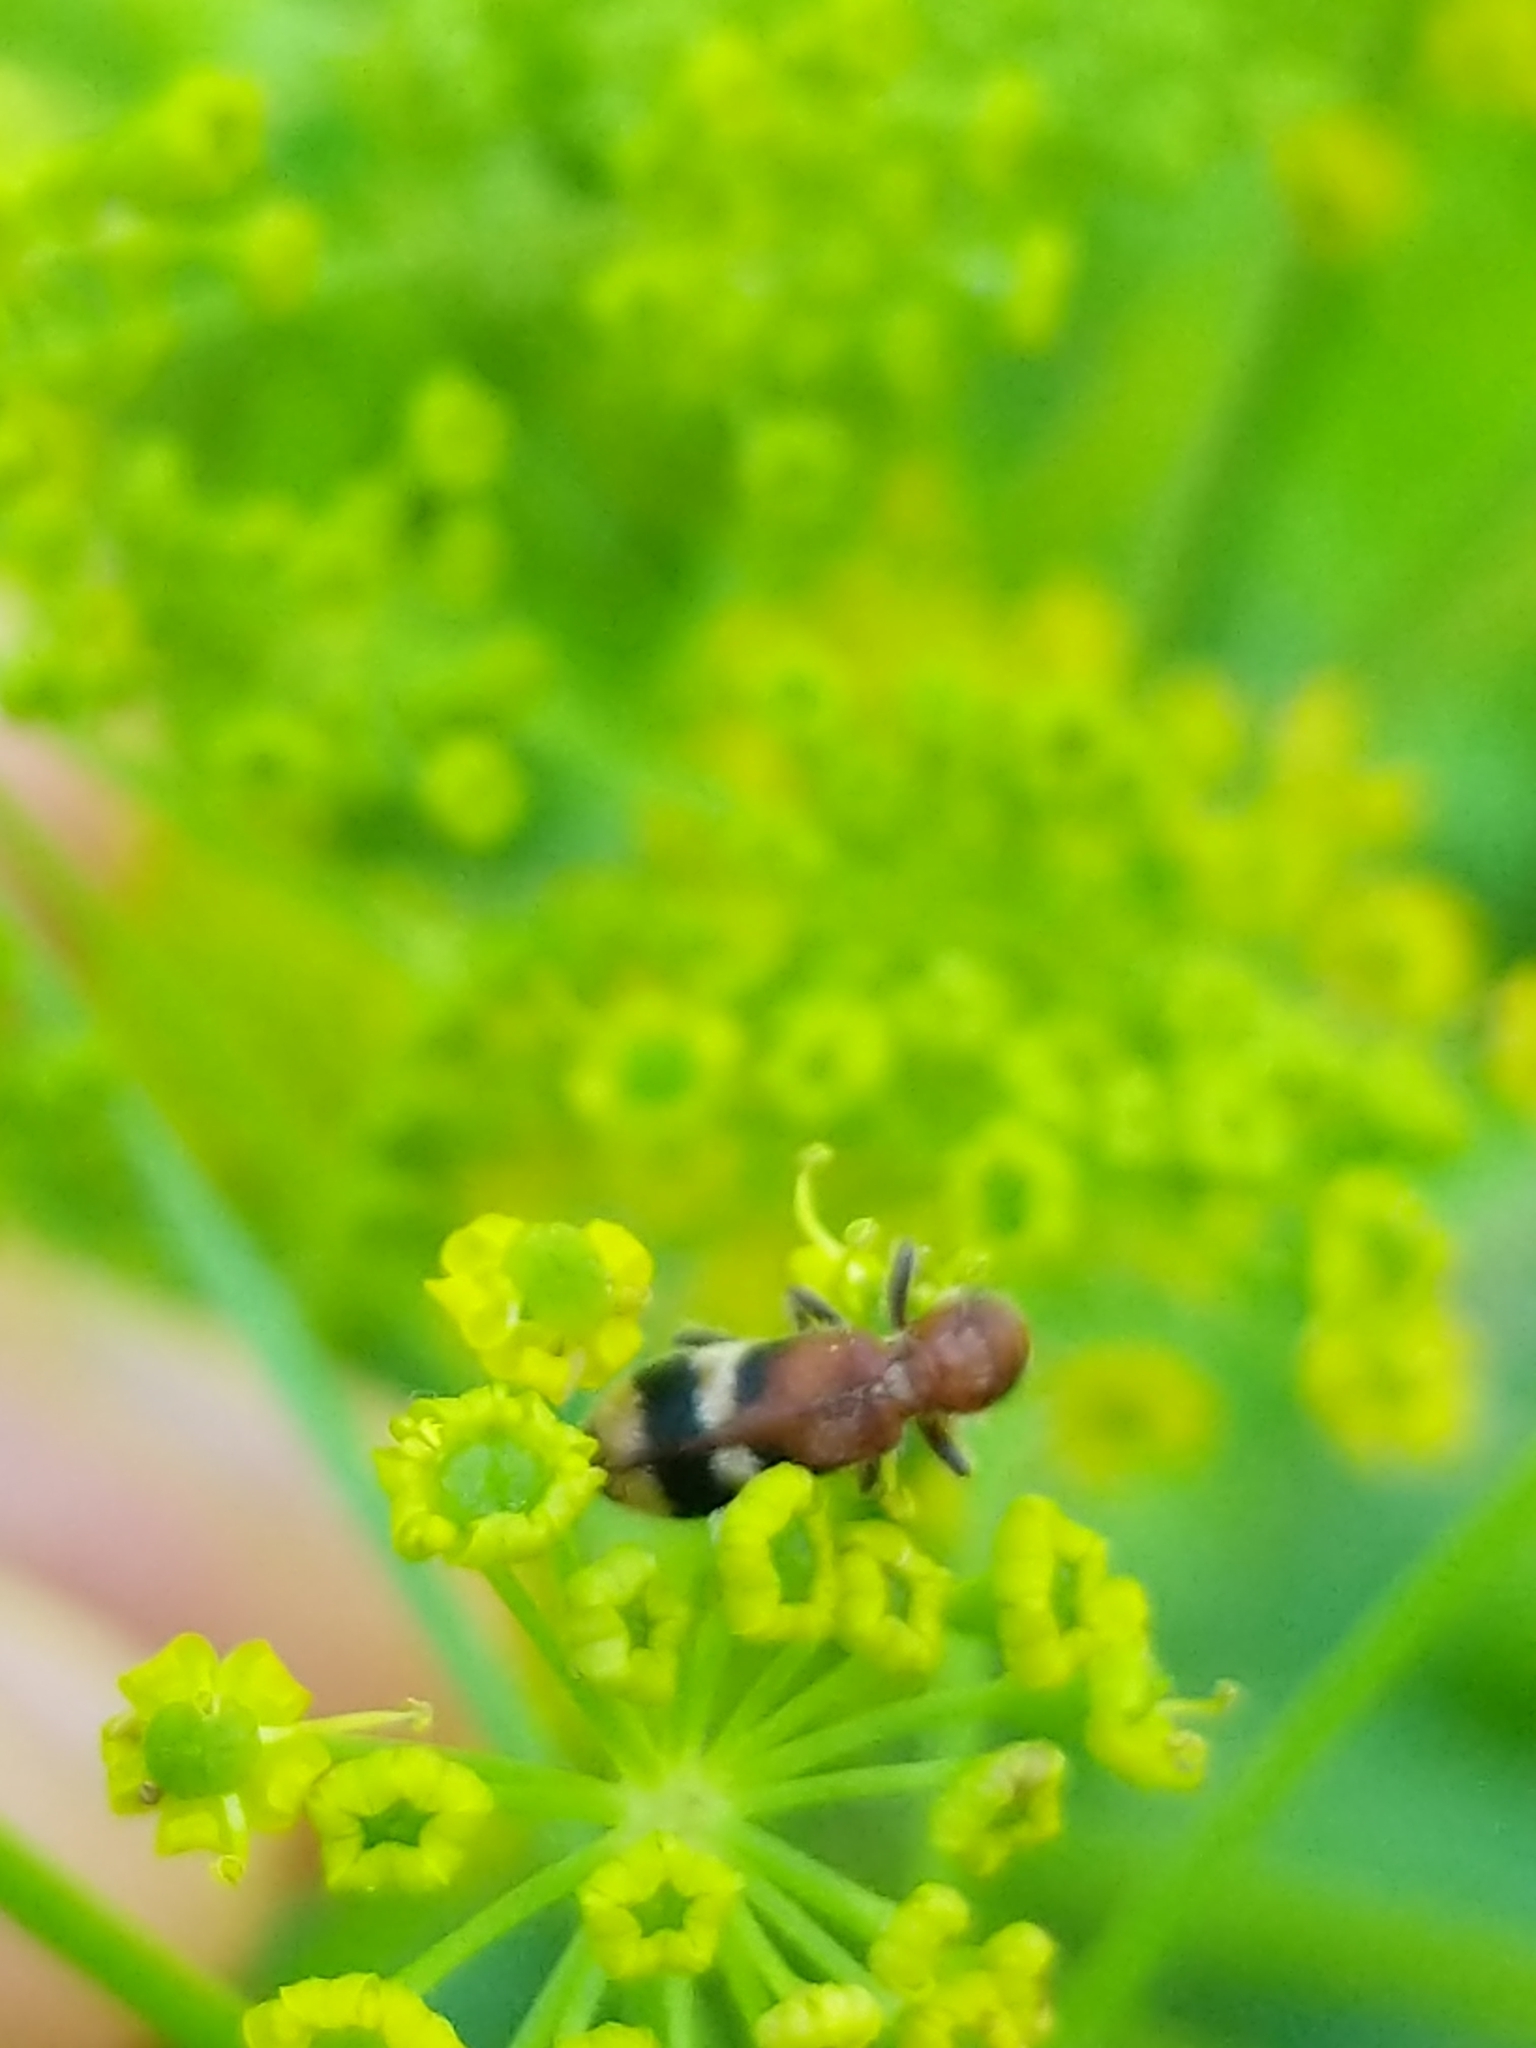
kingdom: Animalia
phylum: Arthropoda
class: Insecta
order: Coleoptera
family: Cleridae
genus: Enoclerus
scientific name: Enoclerus rosmarus
